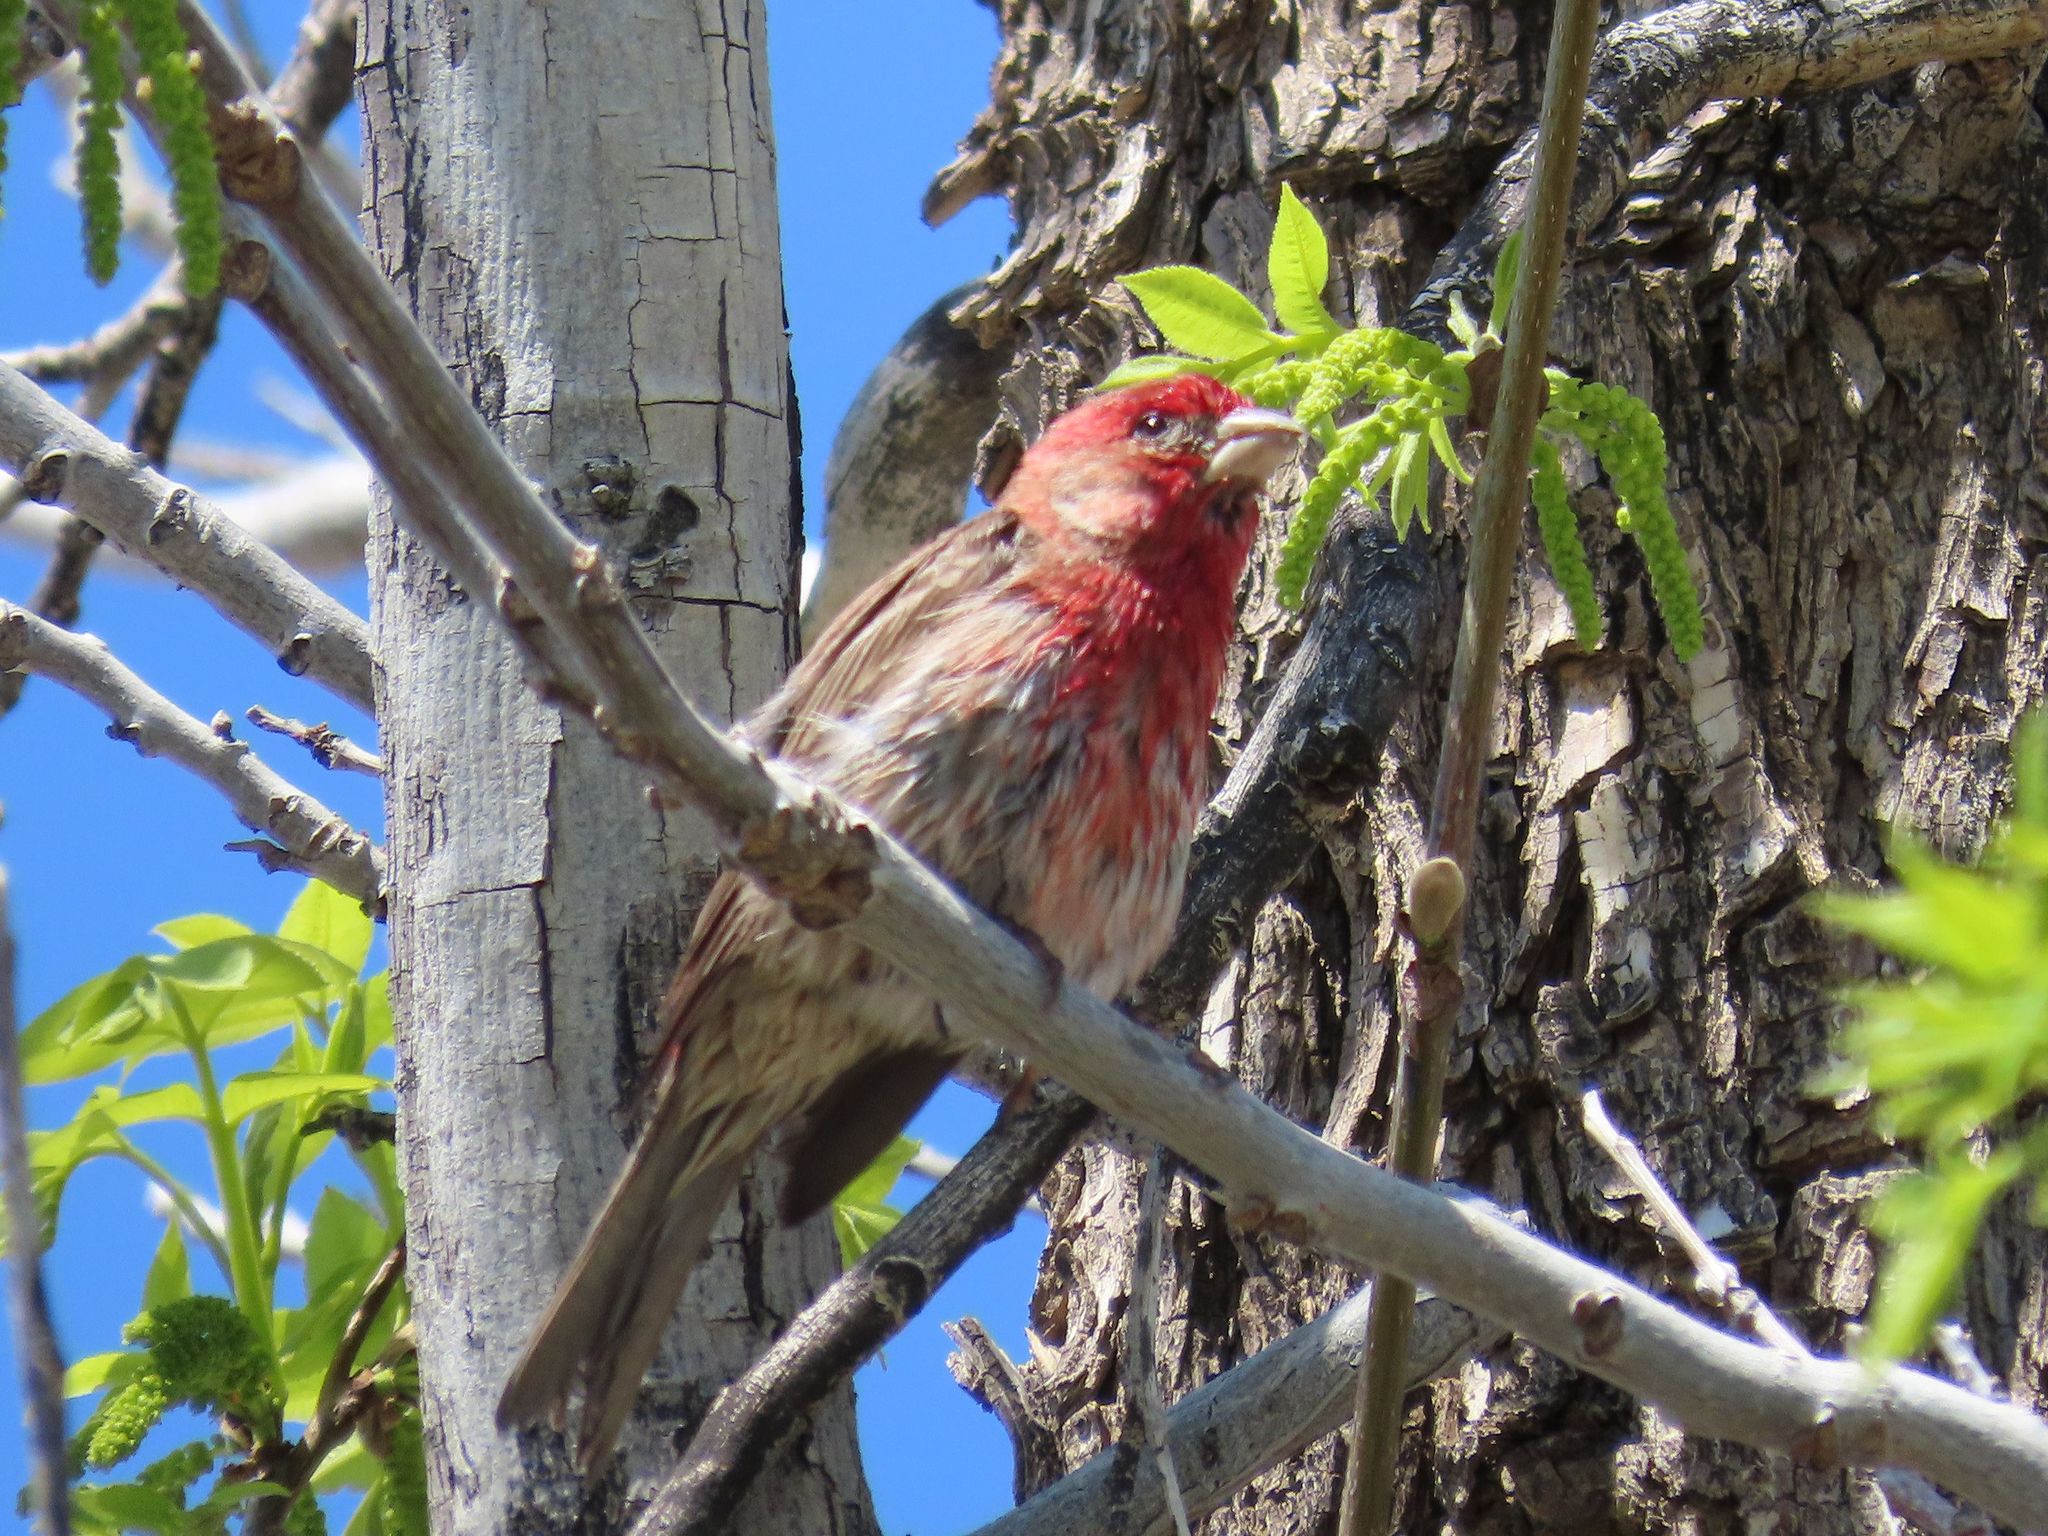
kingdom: Animalia
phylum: Chordata
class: Aves
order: Passeriformes
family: Fringillidae
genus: Haemorhous
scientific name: Haemorhous mexicanus
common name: House finch
